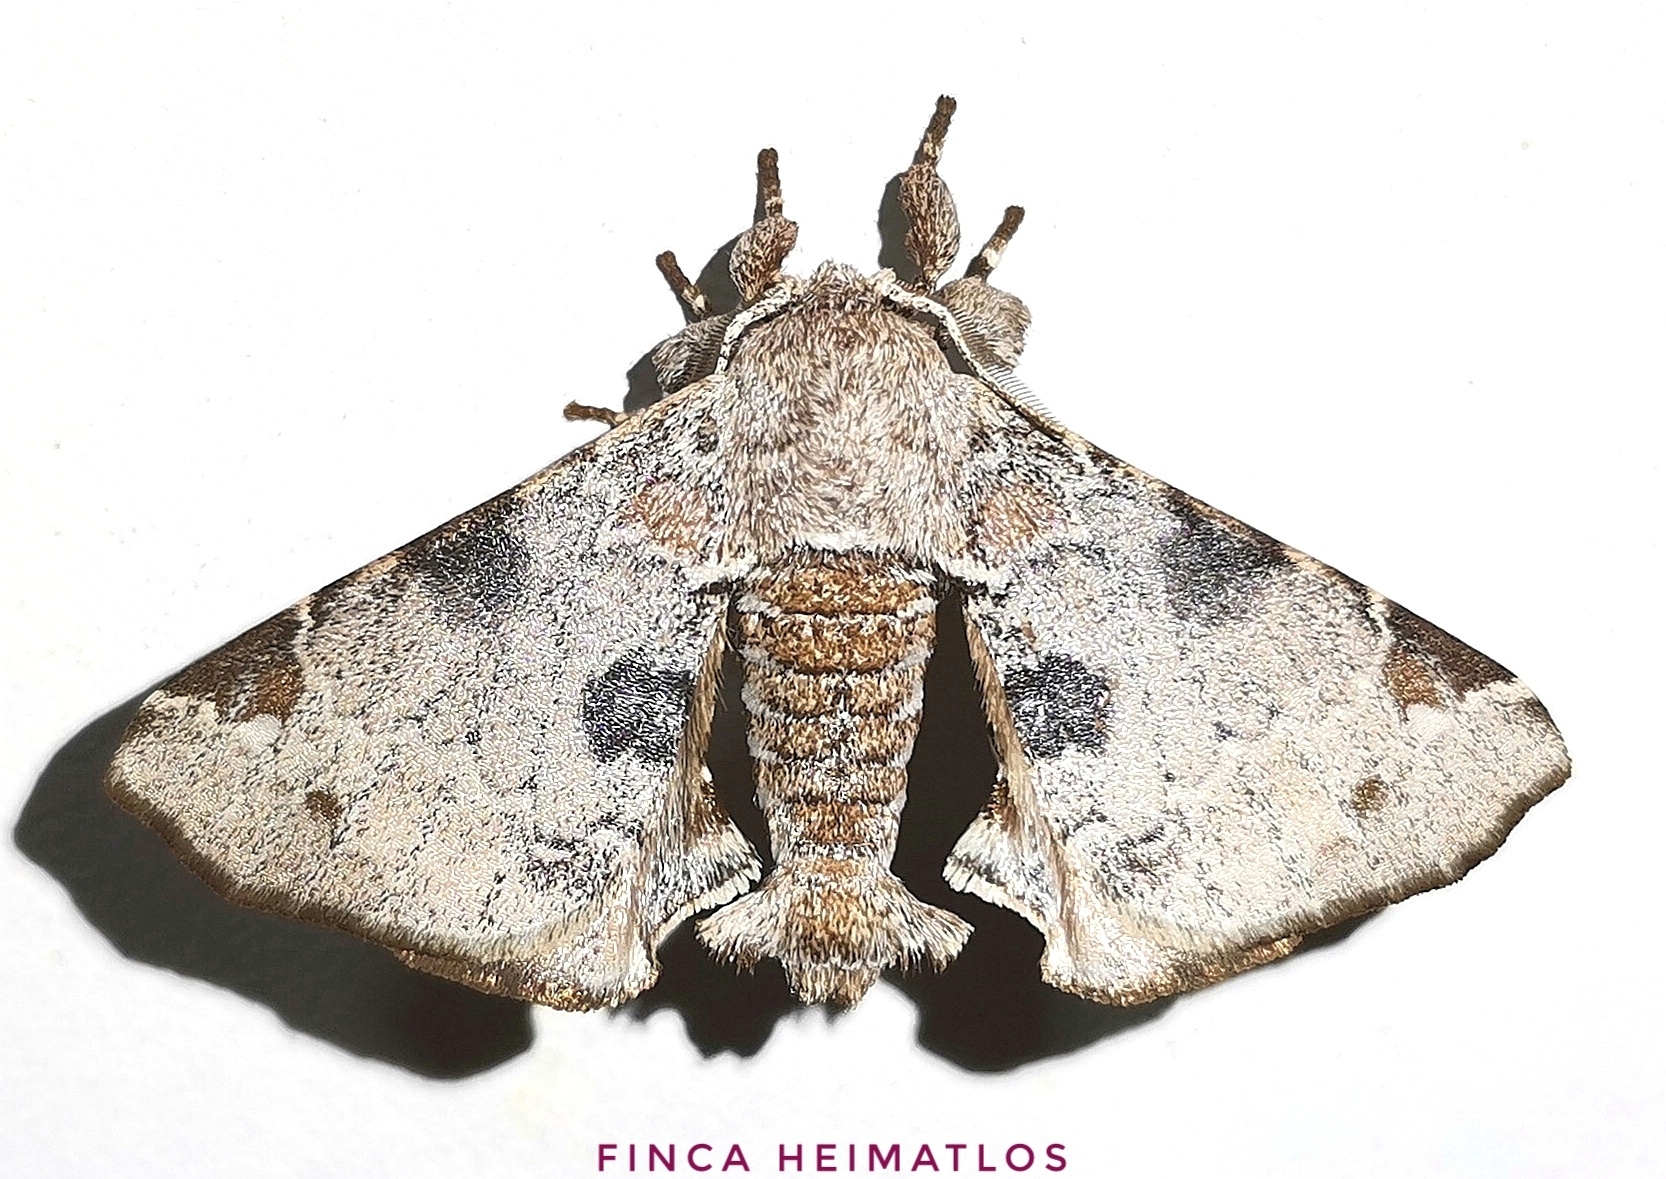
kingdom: Animalia
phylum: Arthropoda
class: Insecta
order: Lepidoptera
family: Apatelodidae
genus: Hygrochroa
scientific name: Hygrochroa nina
